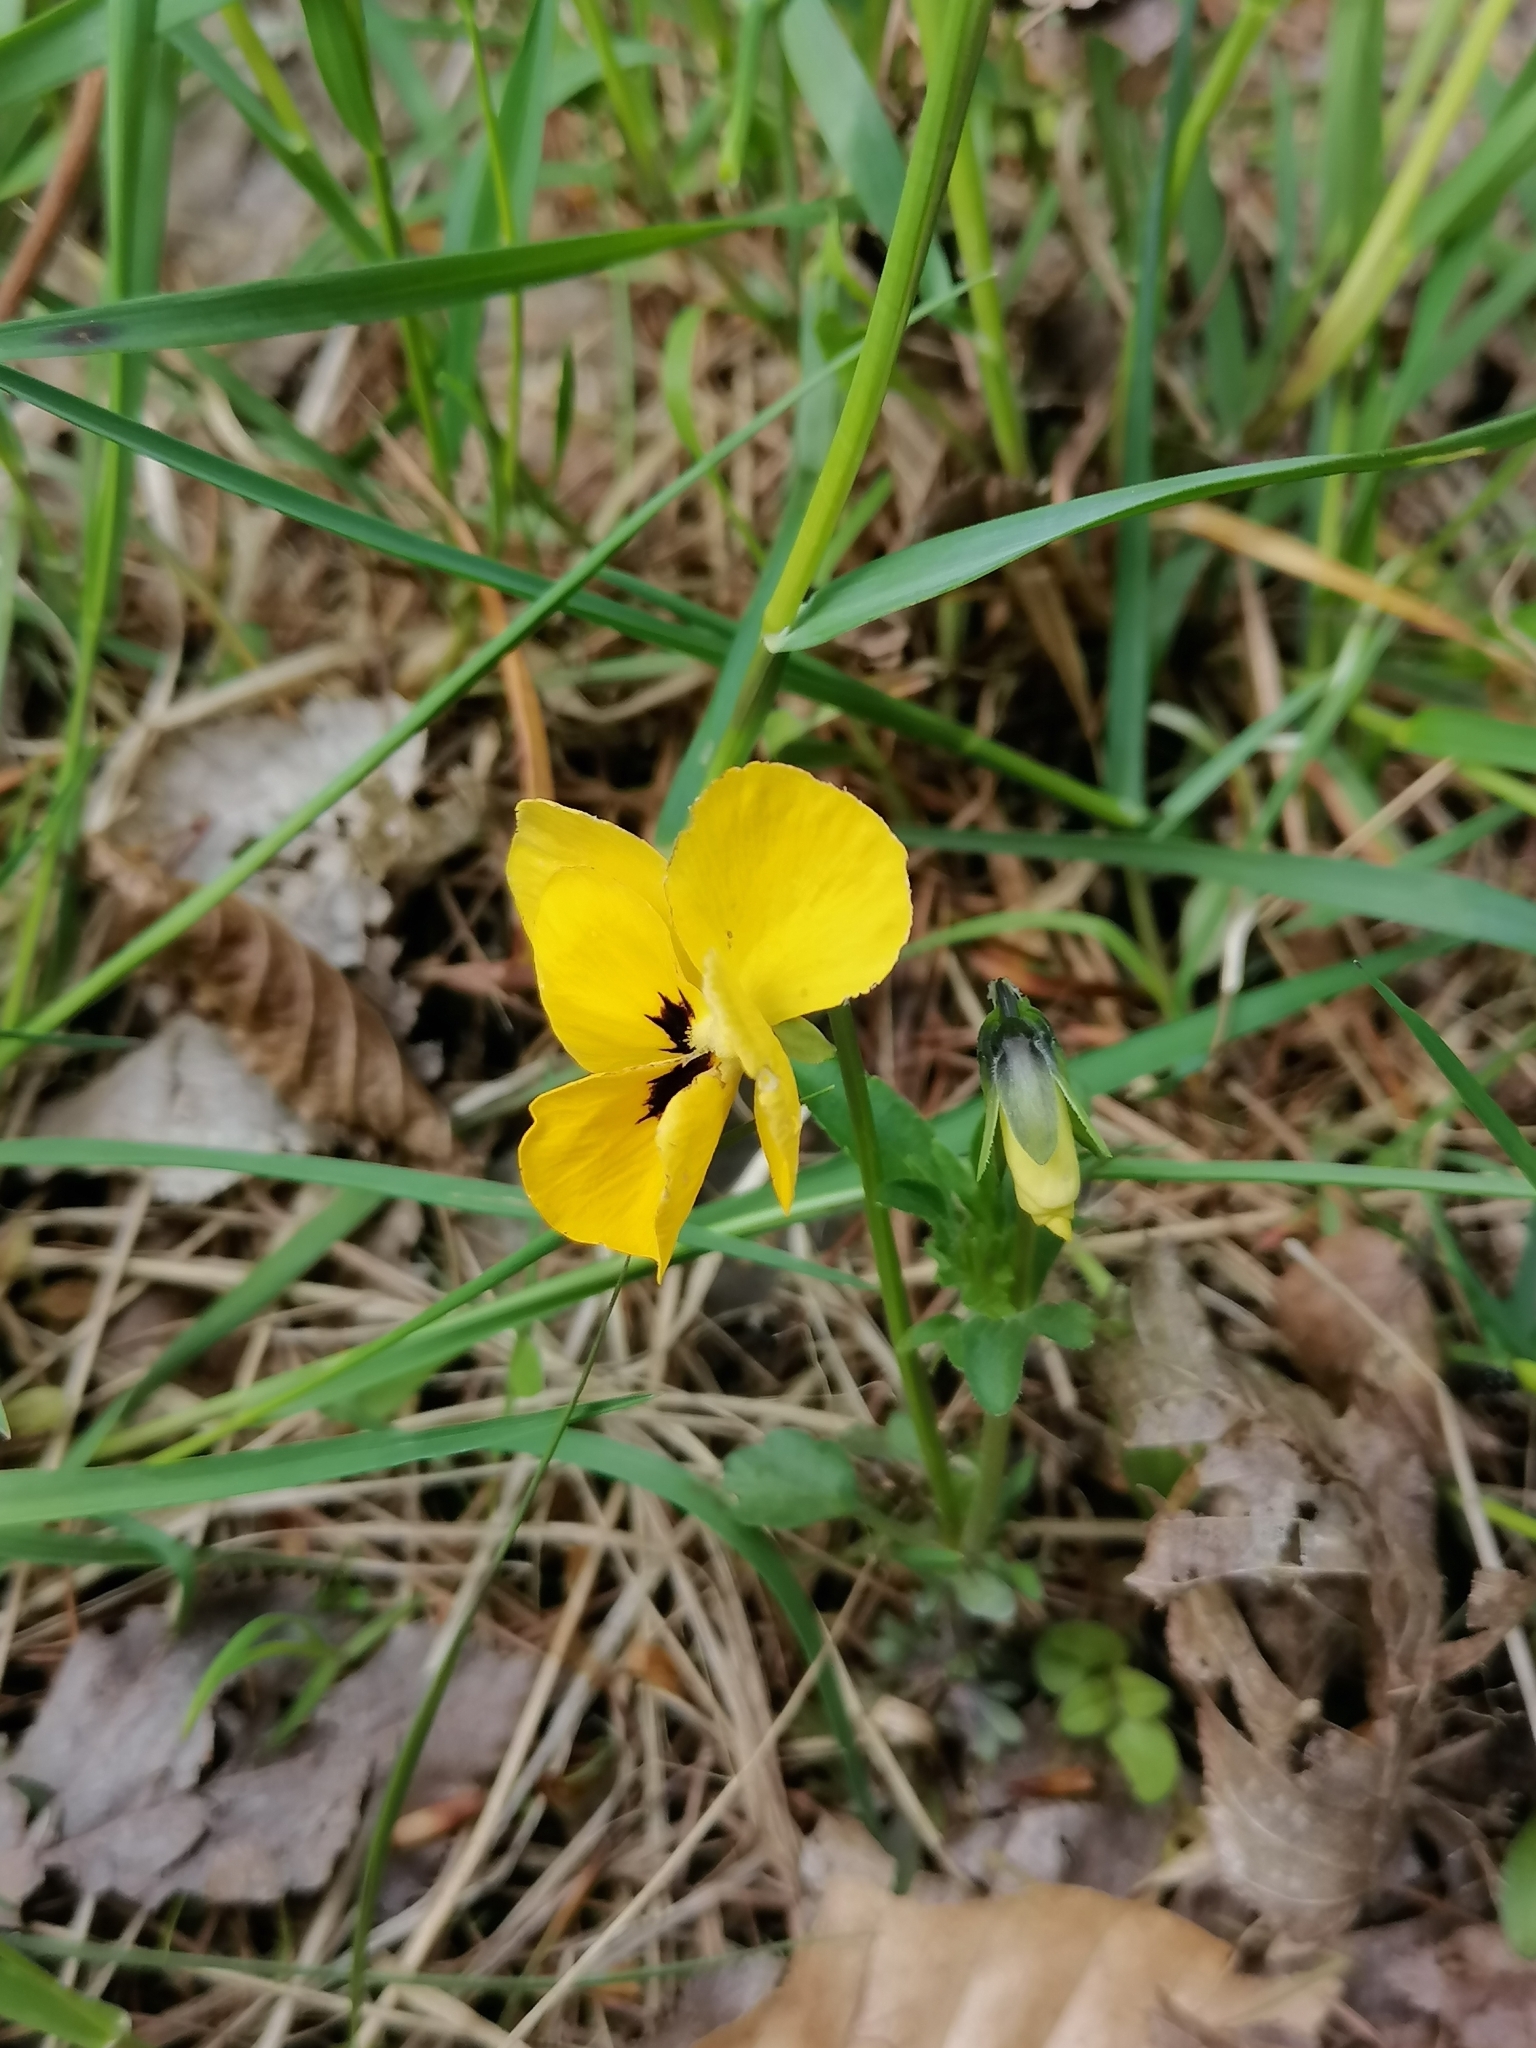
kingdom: Plantae
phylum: Tracheophyta
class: Magnoliopsida
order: Malpighiales
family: Violaceae
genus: Viola
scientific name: Viola wittrockiana
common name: Garden pansy
